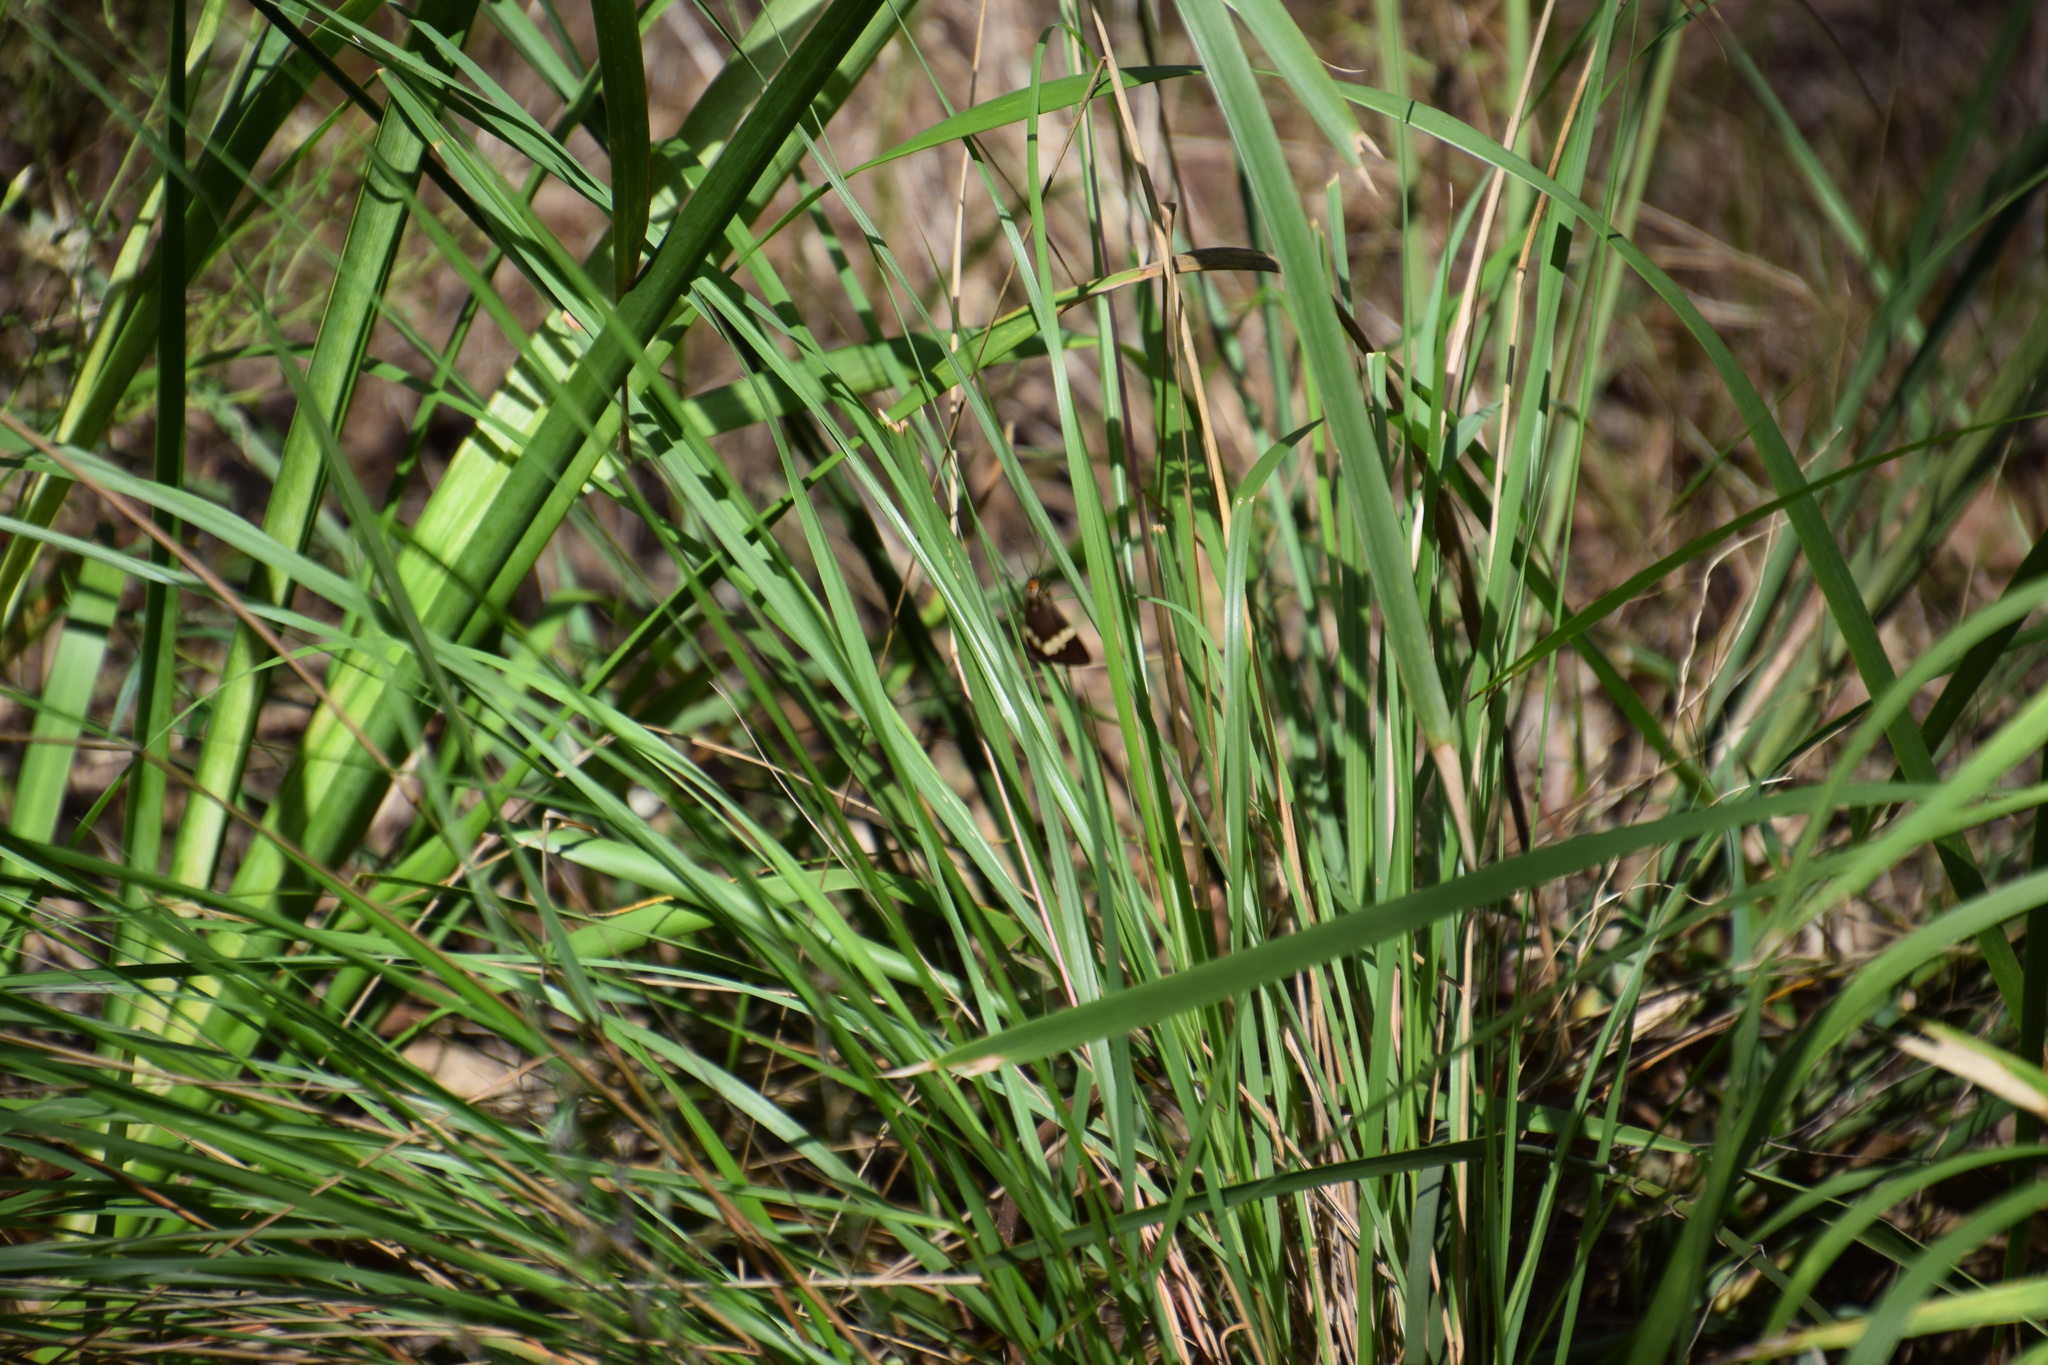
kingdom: Animalia
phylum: Arthropoda
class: Insecta
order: Lepidoptera
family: Erebidae
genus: Nyctemera
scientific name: Nyctemera amicus
